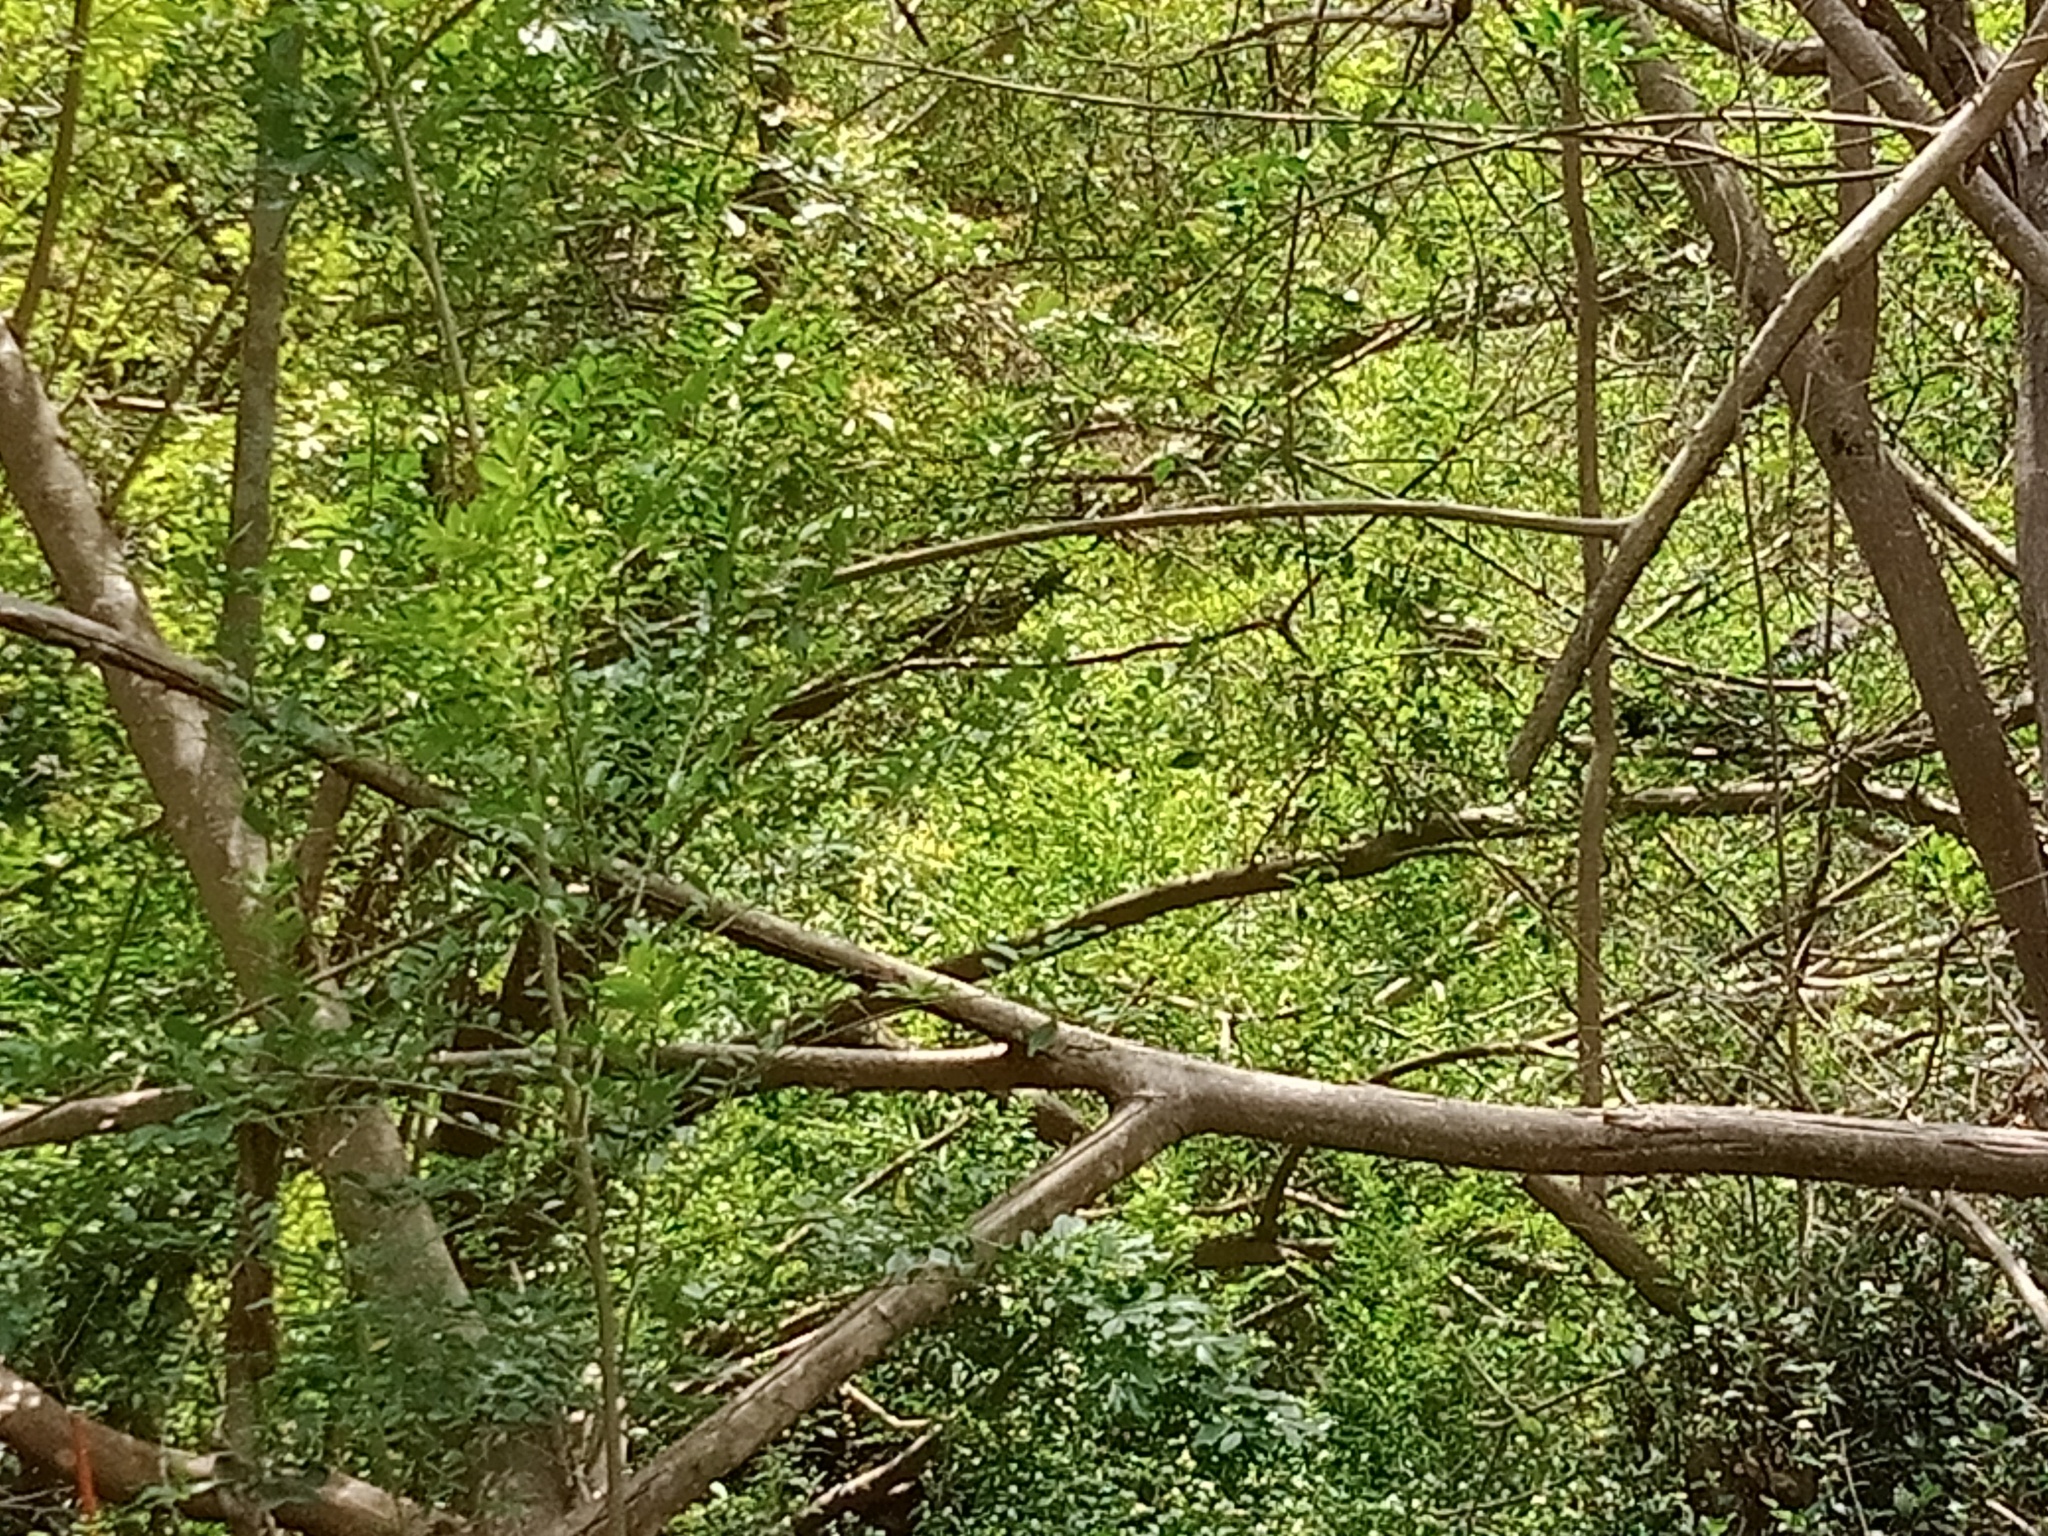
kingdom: Animalia
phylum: Chordata
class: Aves
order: Suliformes
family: Phalacrocoracidae
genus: Microcarbo
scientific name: Microcarbo melanoleucos
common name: Little pied cormorant
